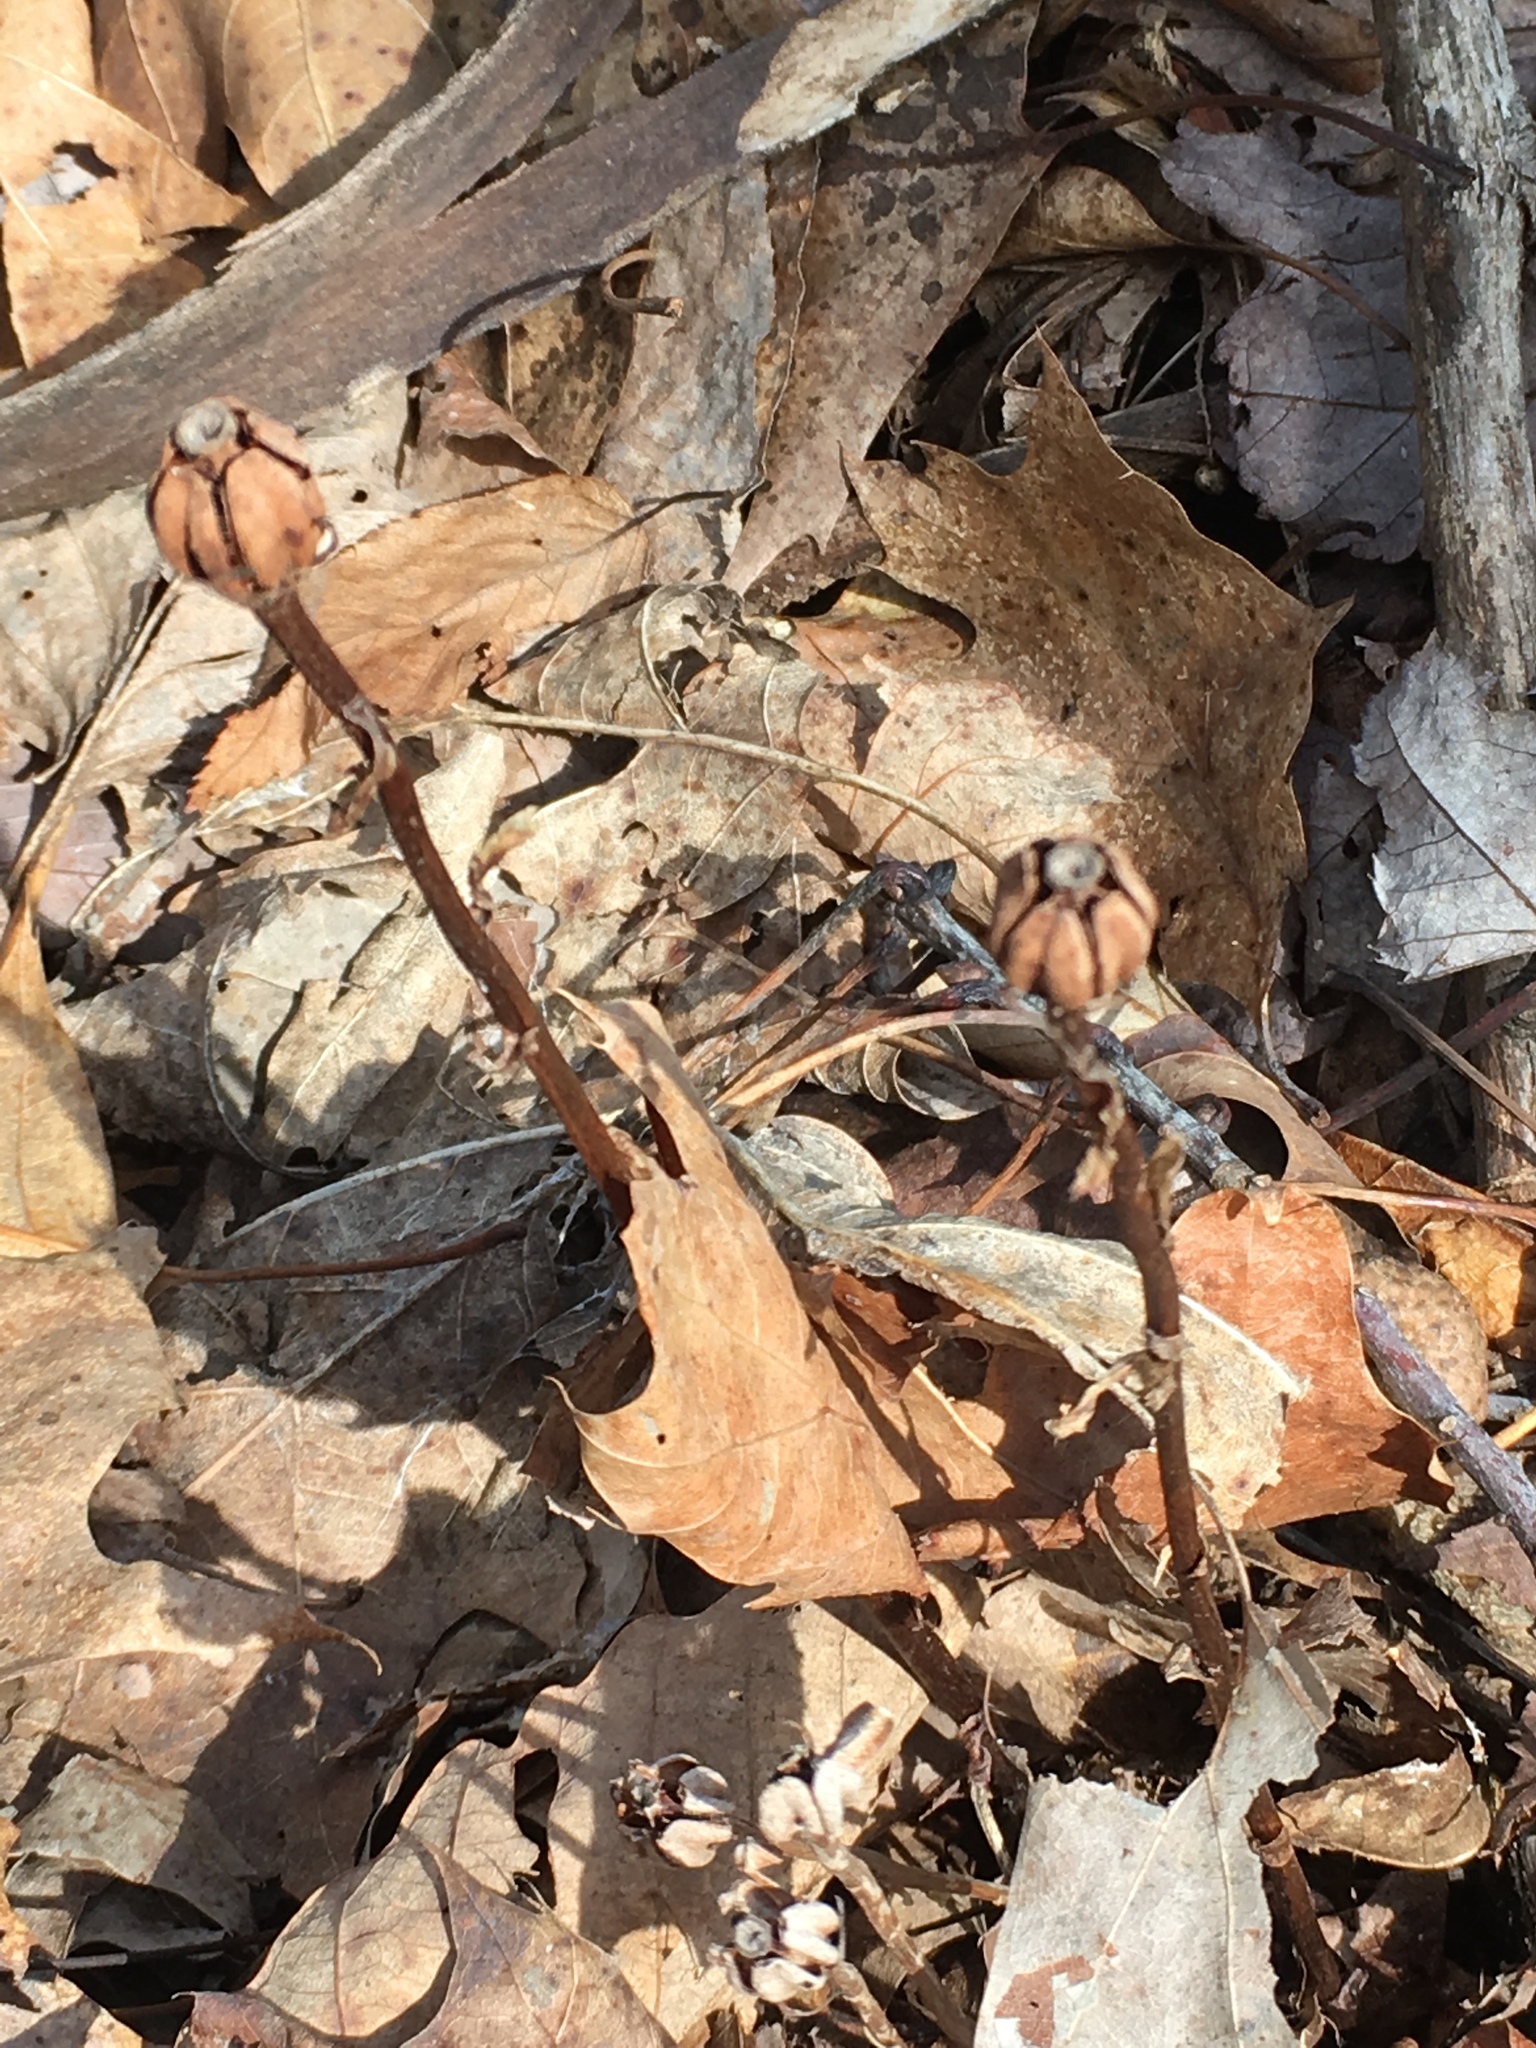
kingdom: Plantae
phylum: Tracheophyta
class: Magnoliopsida
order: Ericales
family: Ericaceae
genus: Monotropa
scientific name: Monotropa uniflora
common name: Convulsion root
